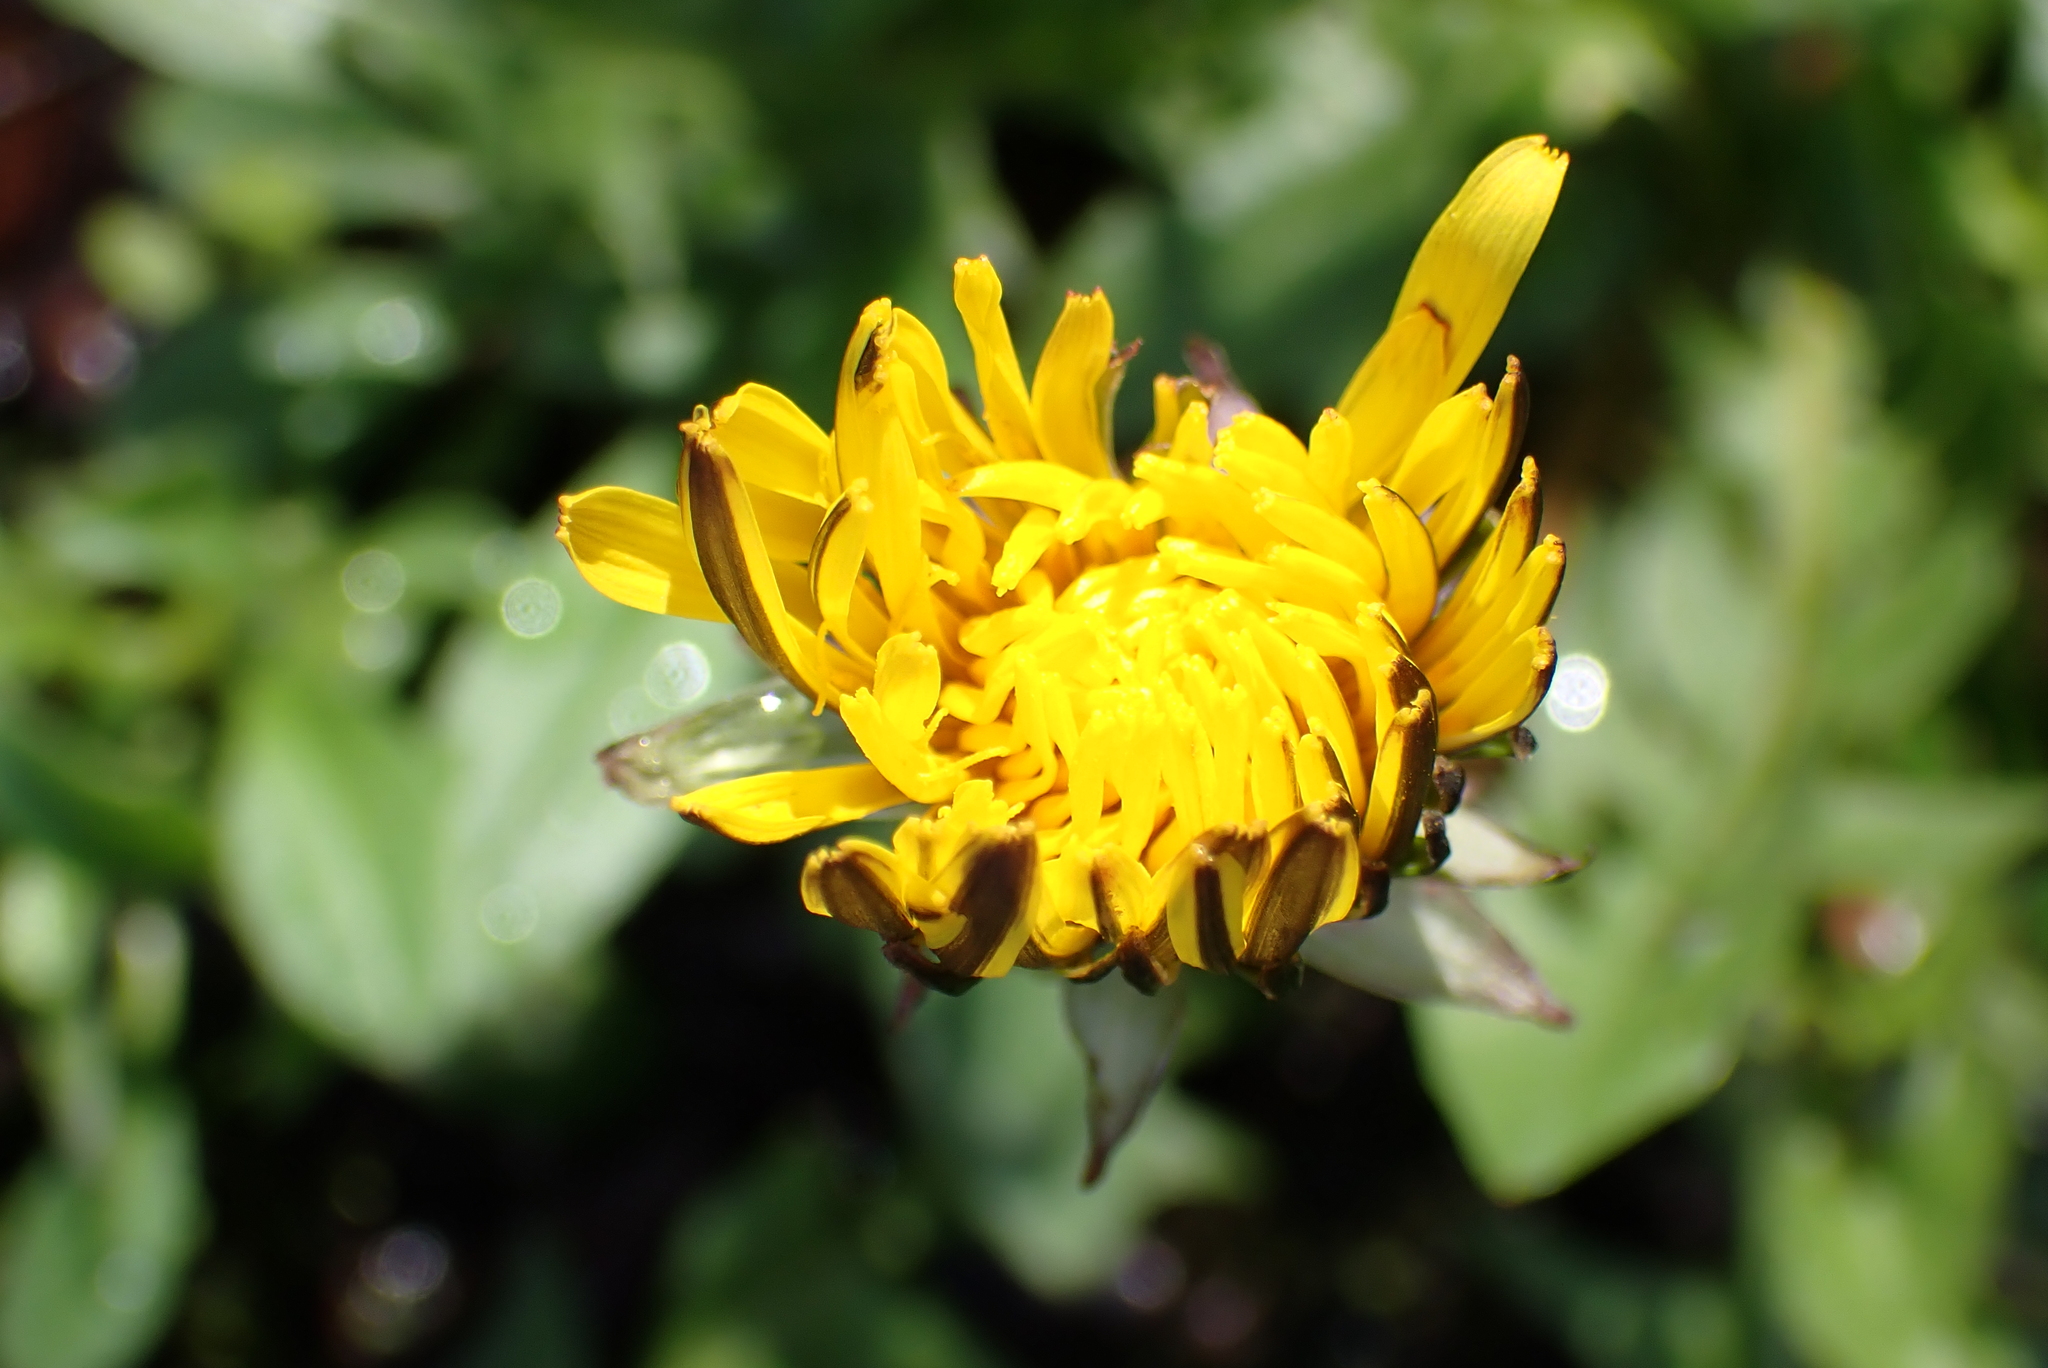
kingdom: Plantae
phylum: Tracheophyta
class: Magnoliopsida
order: Asterales
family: Asteraceae
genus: Taraxacum
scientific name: Taraxacum officinale
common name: Common dandelion
